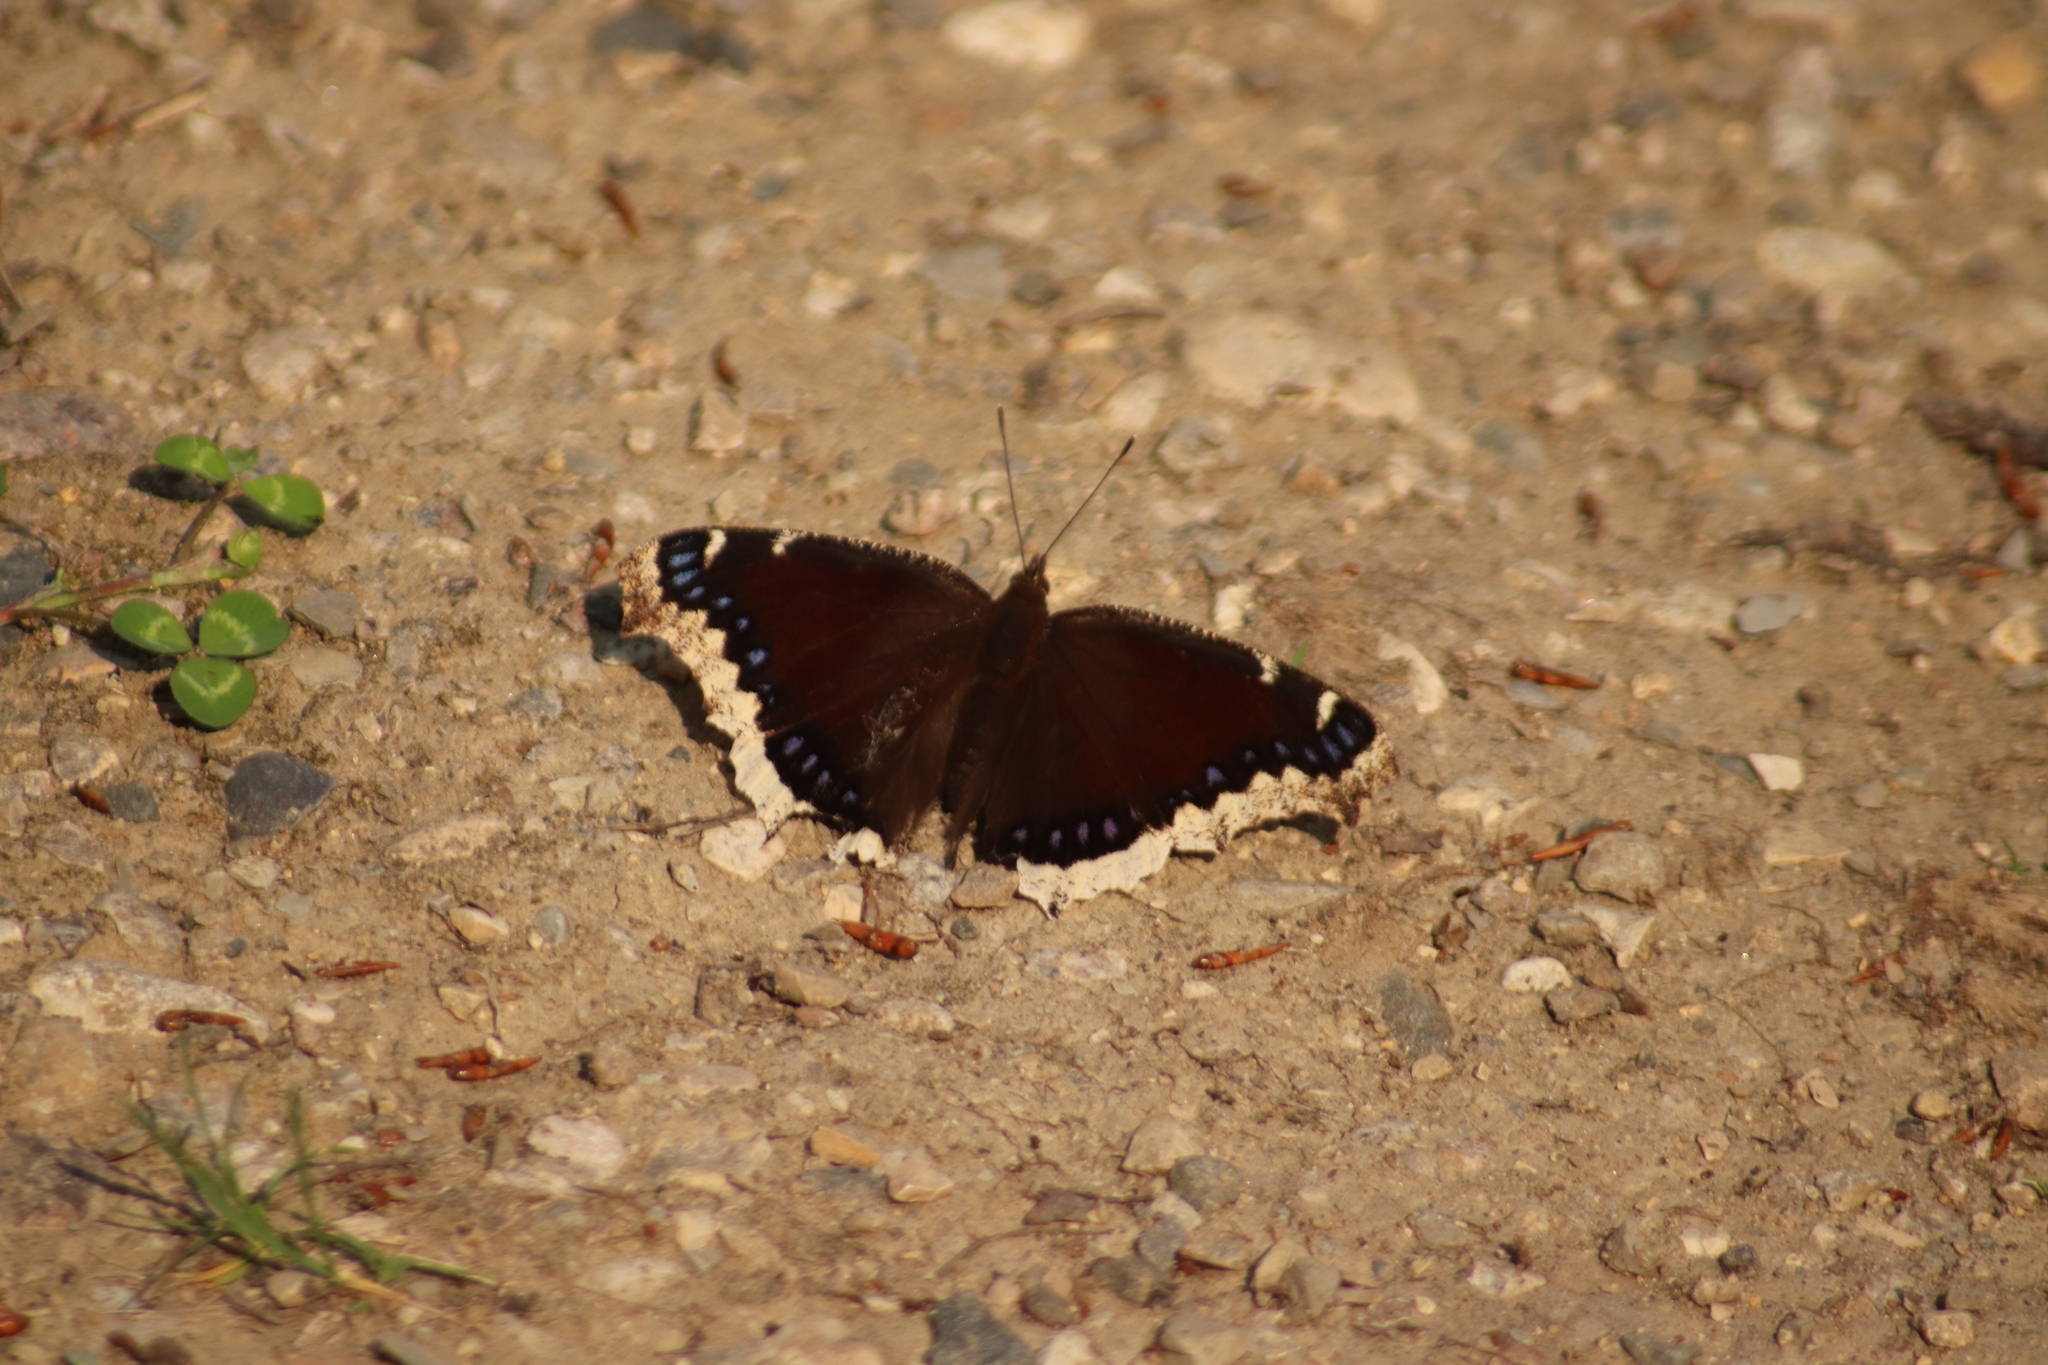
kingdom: Animalia
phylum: Arthropoda
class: Insecta
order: Lepidoptera
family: Nymphalidae
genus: Nymphalis
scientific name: Nymphalis antiopa
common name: Camberwell beauty
